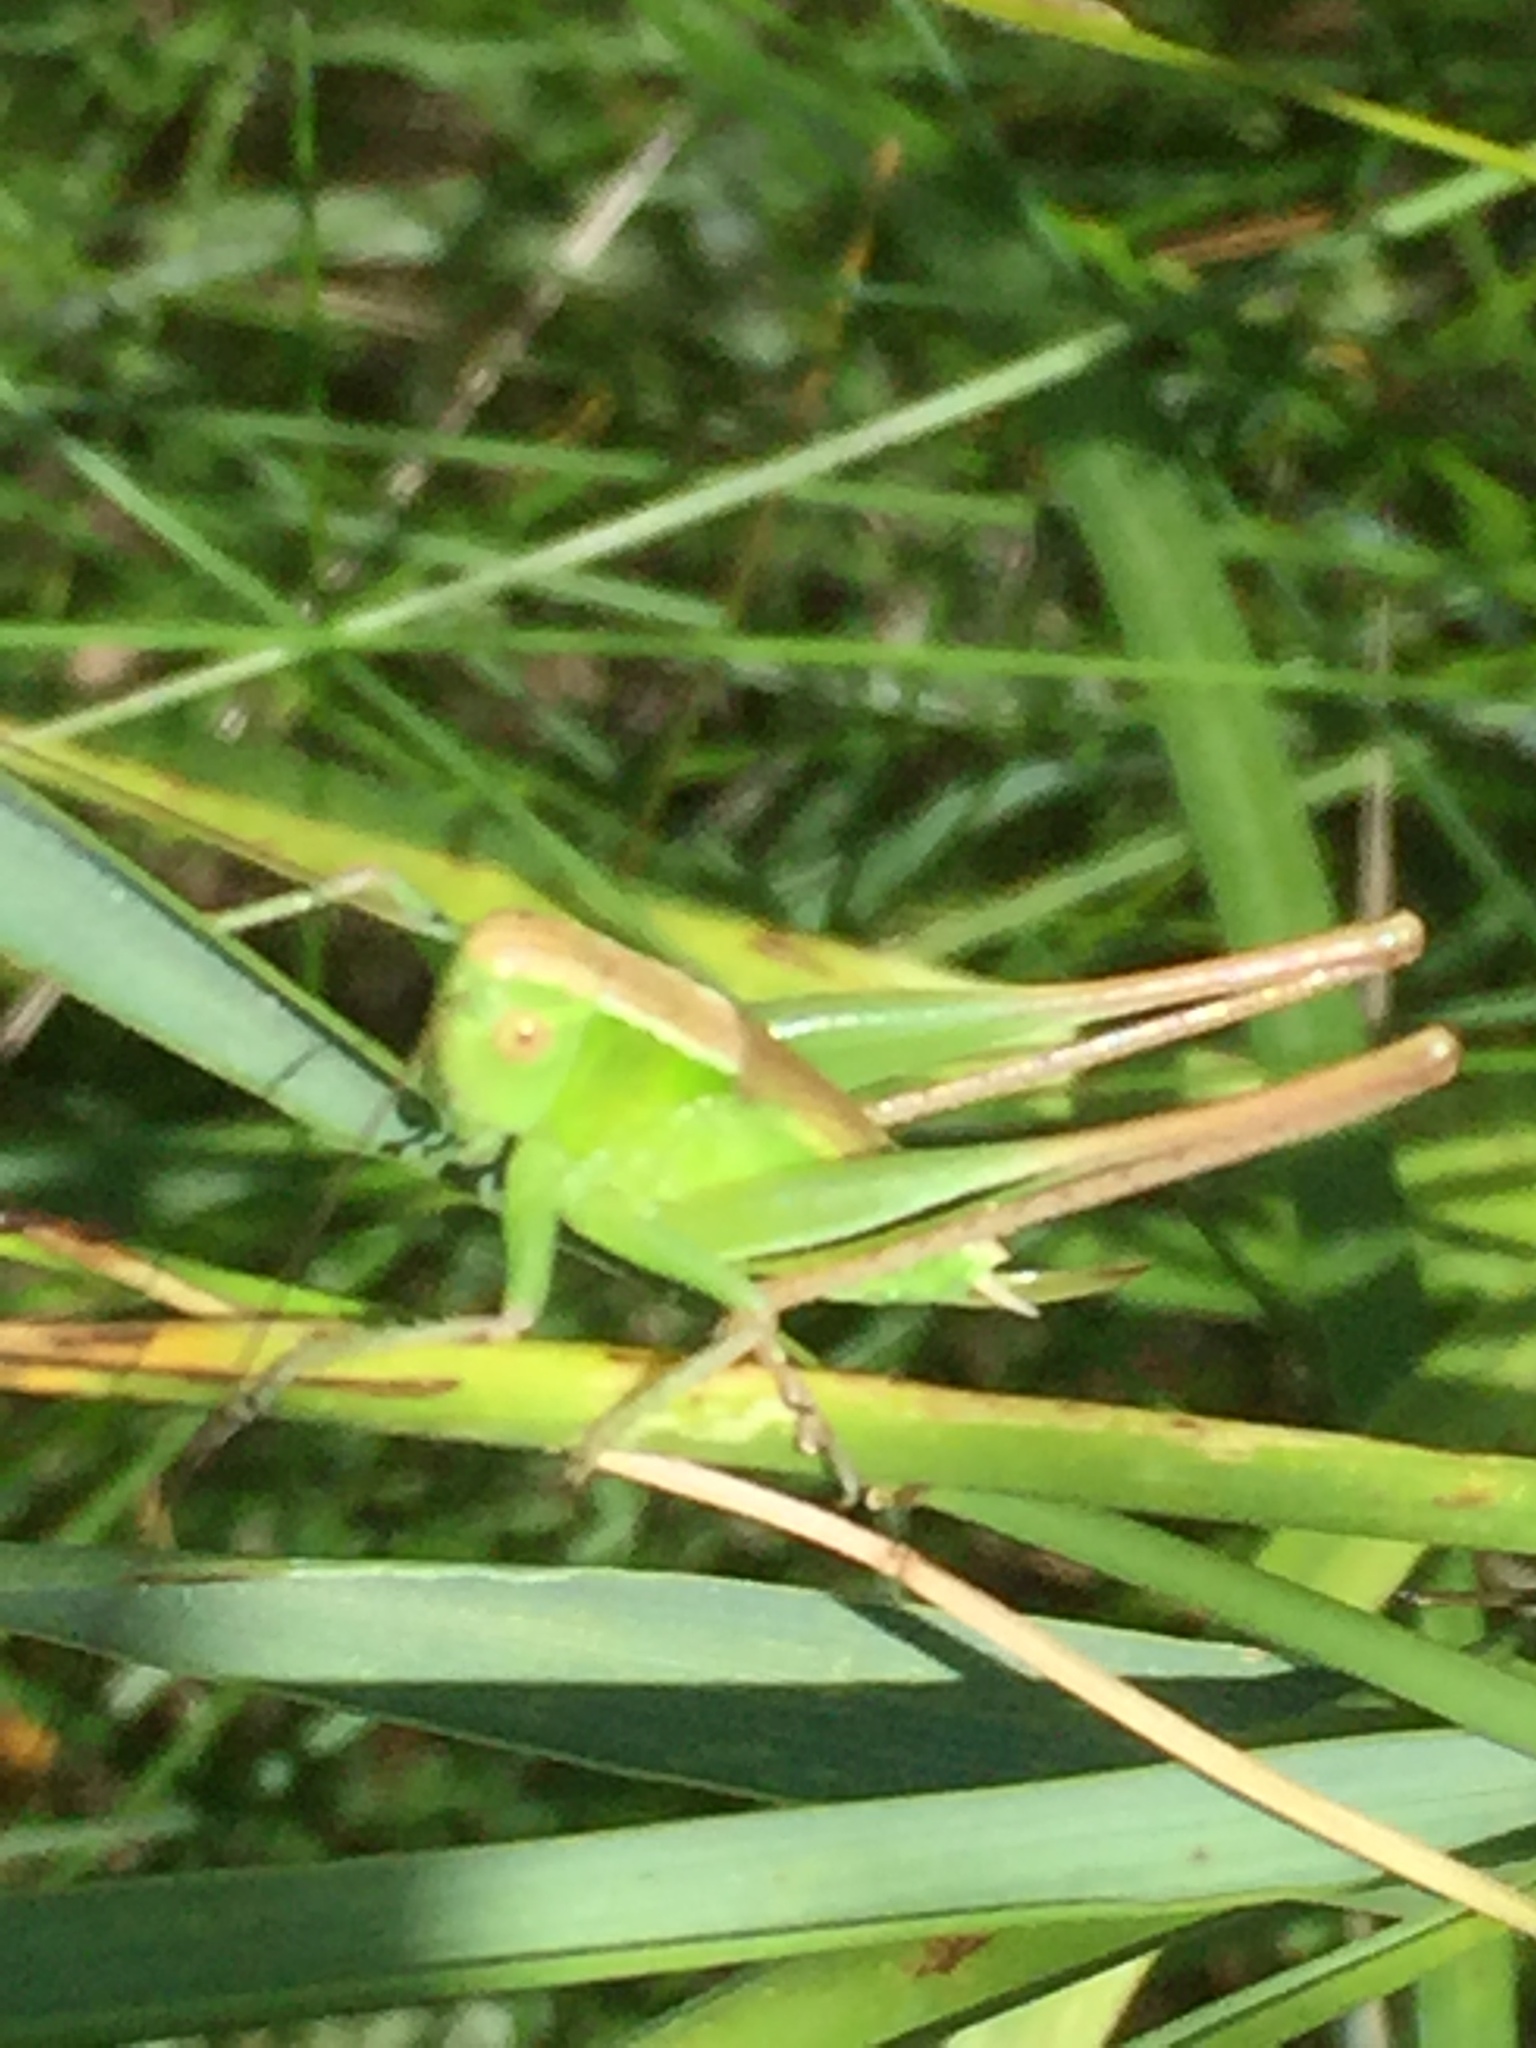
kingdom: Animalia
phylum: Arthropoda
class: Insecta
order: Orthoptera
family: Tettigoniidae
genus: Bicolorana
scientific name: Bicolorana bicolor
